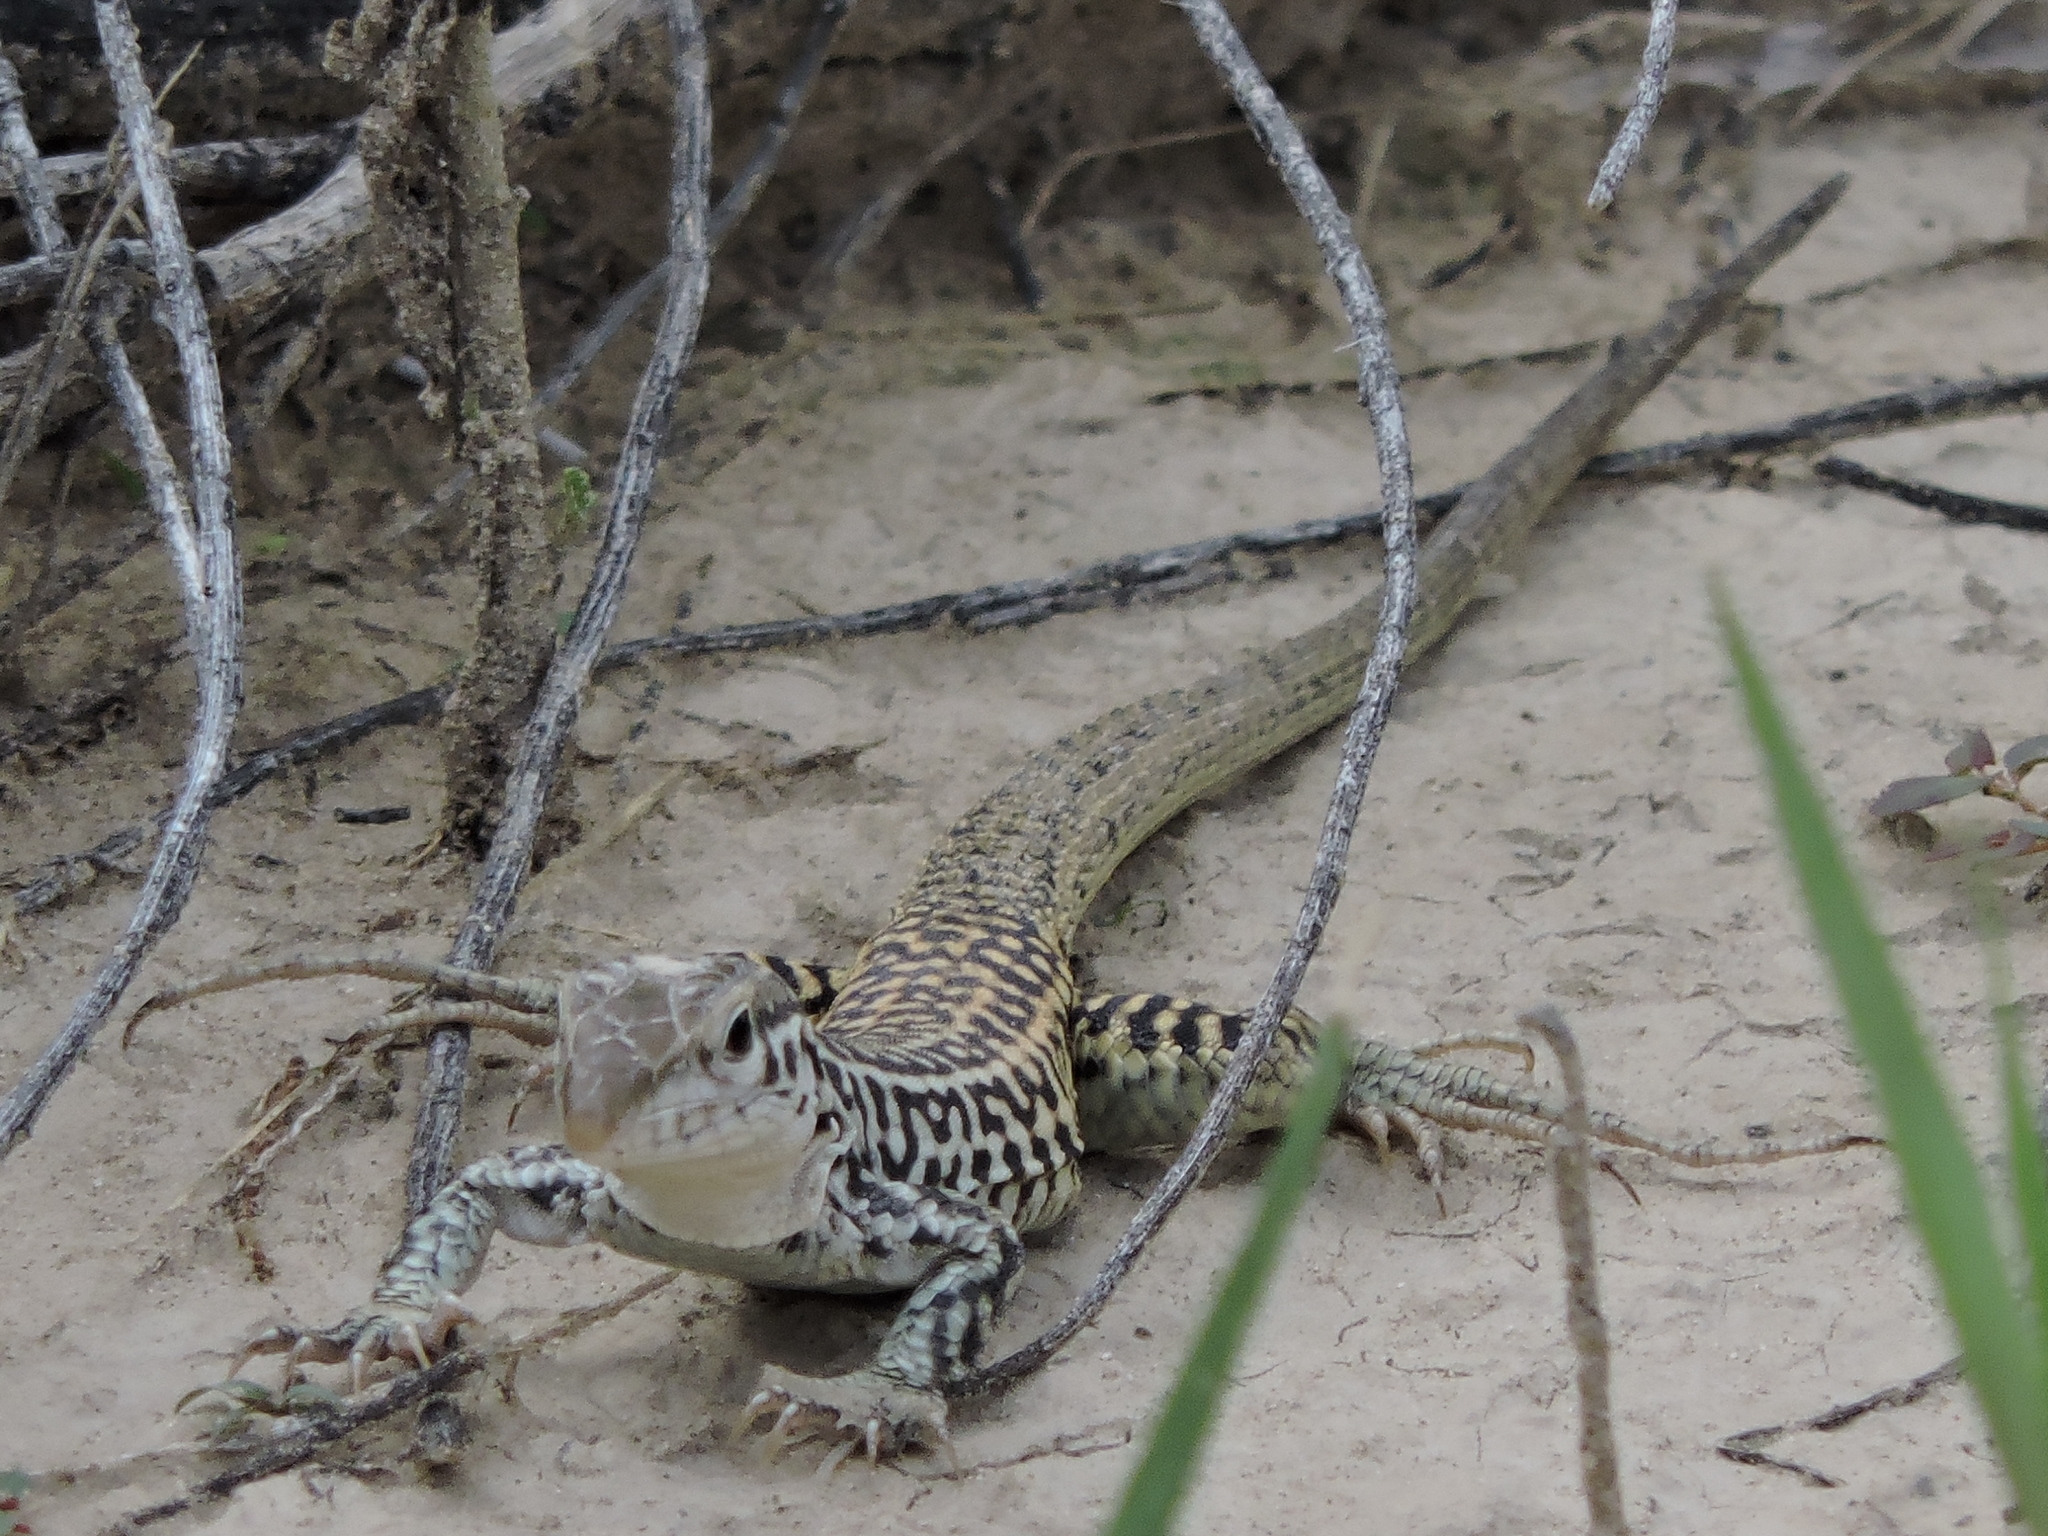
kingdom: Animalia
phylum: Chordata
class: Squamata
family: Teiidae
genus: Aspidoscelis
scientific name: Aspidoscelis tesselatus
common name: Common checkered whiptail [tesselata]
